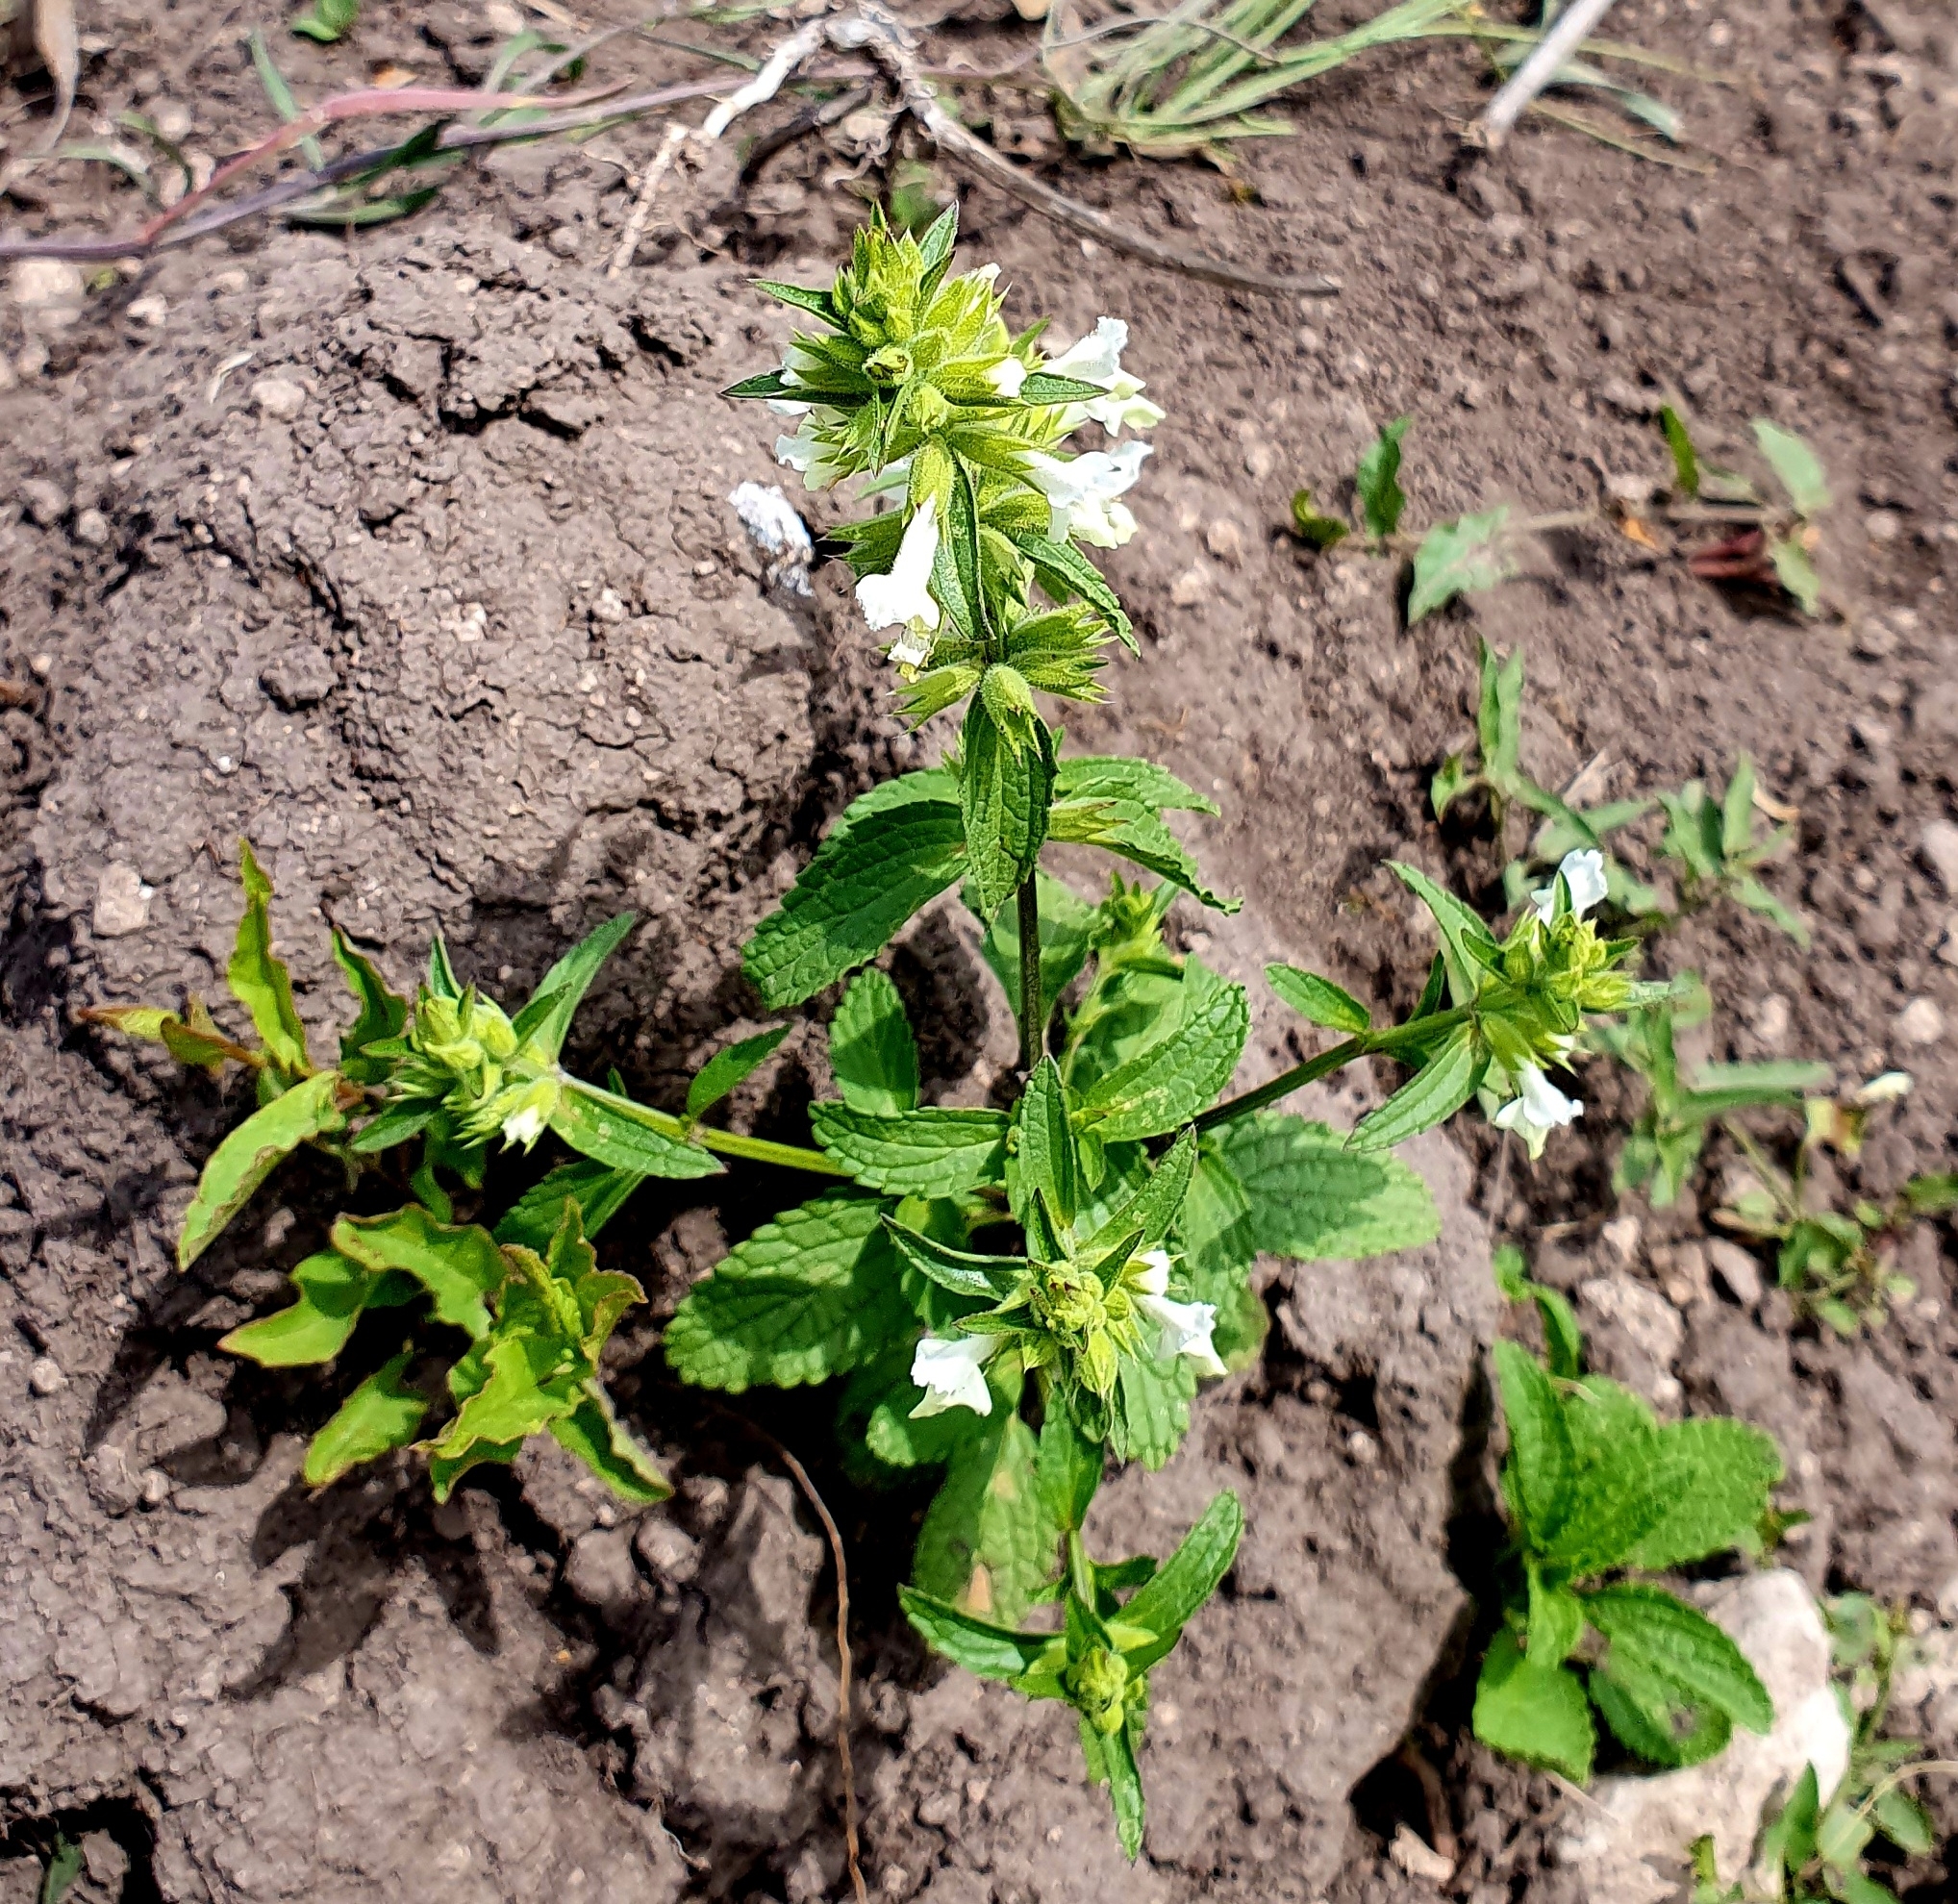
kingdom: Plantae
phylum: Tracheophyta
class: Magnoliopsida
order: Lamiales
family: Lamiaceae
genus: Stachys
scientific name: Stachys annua
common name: Annual yellow-woundwort
